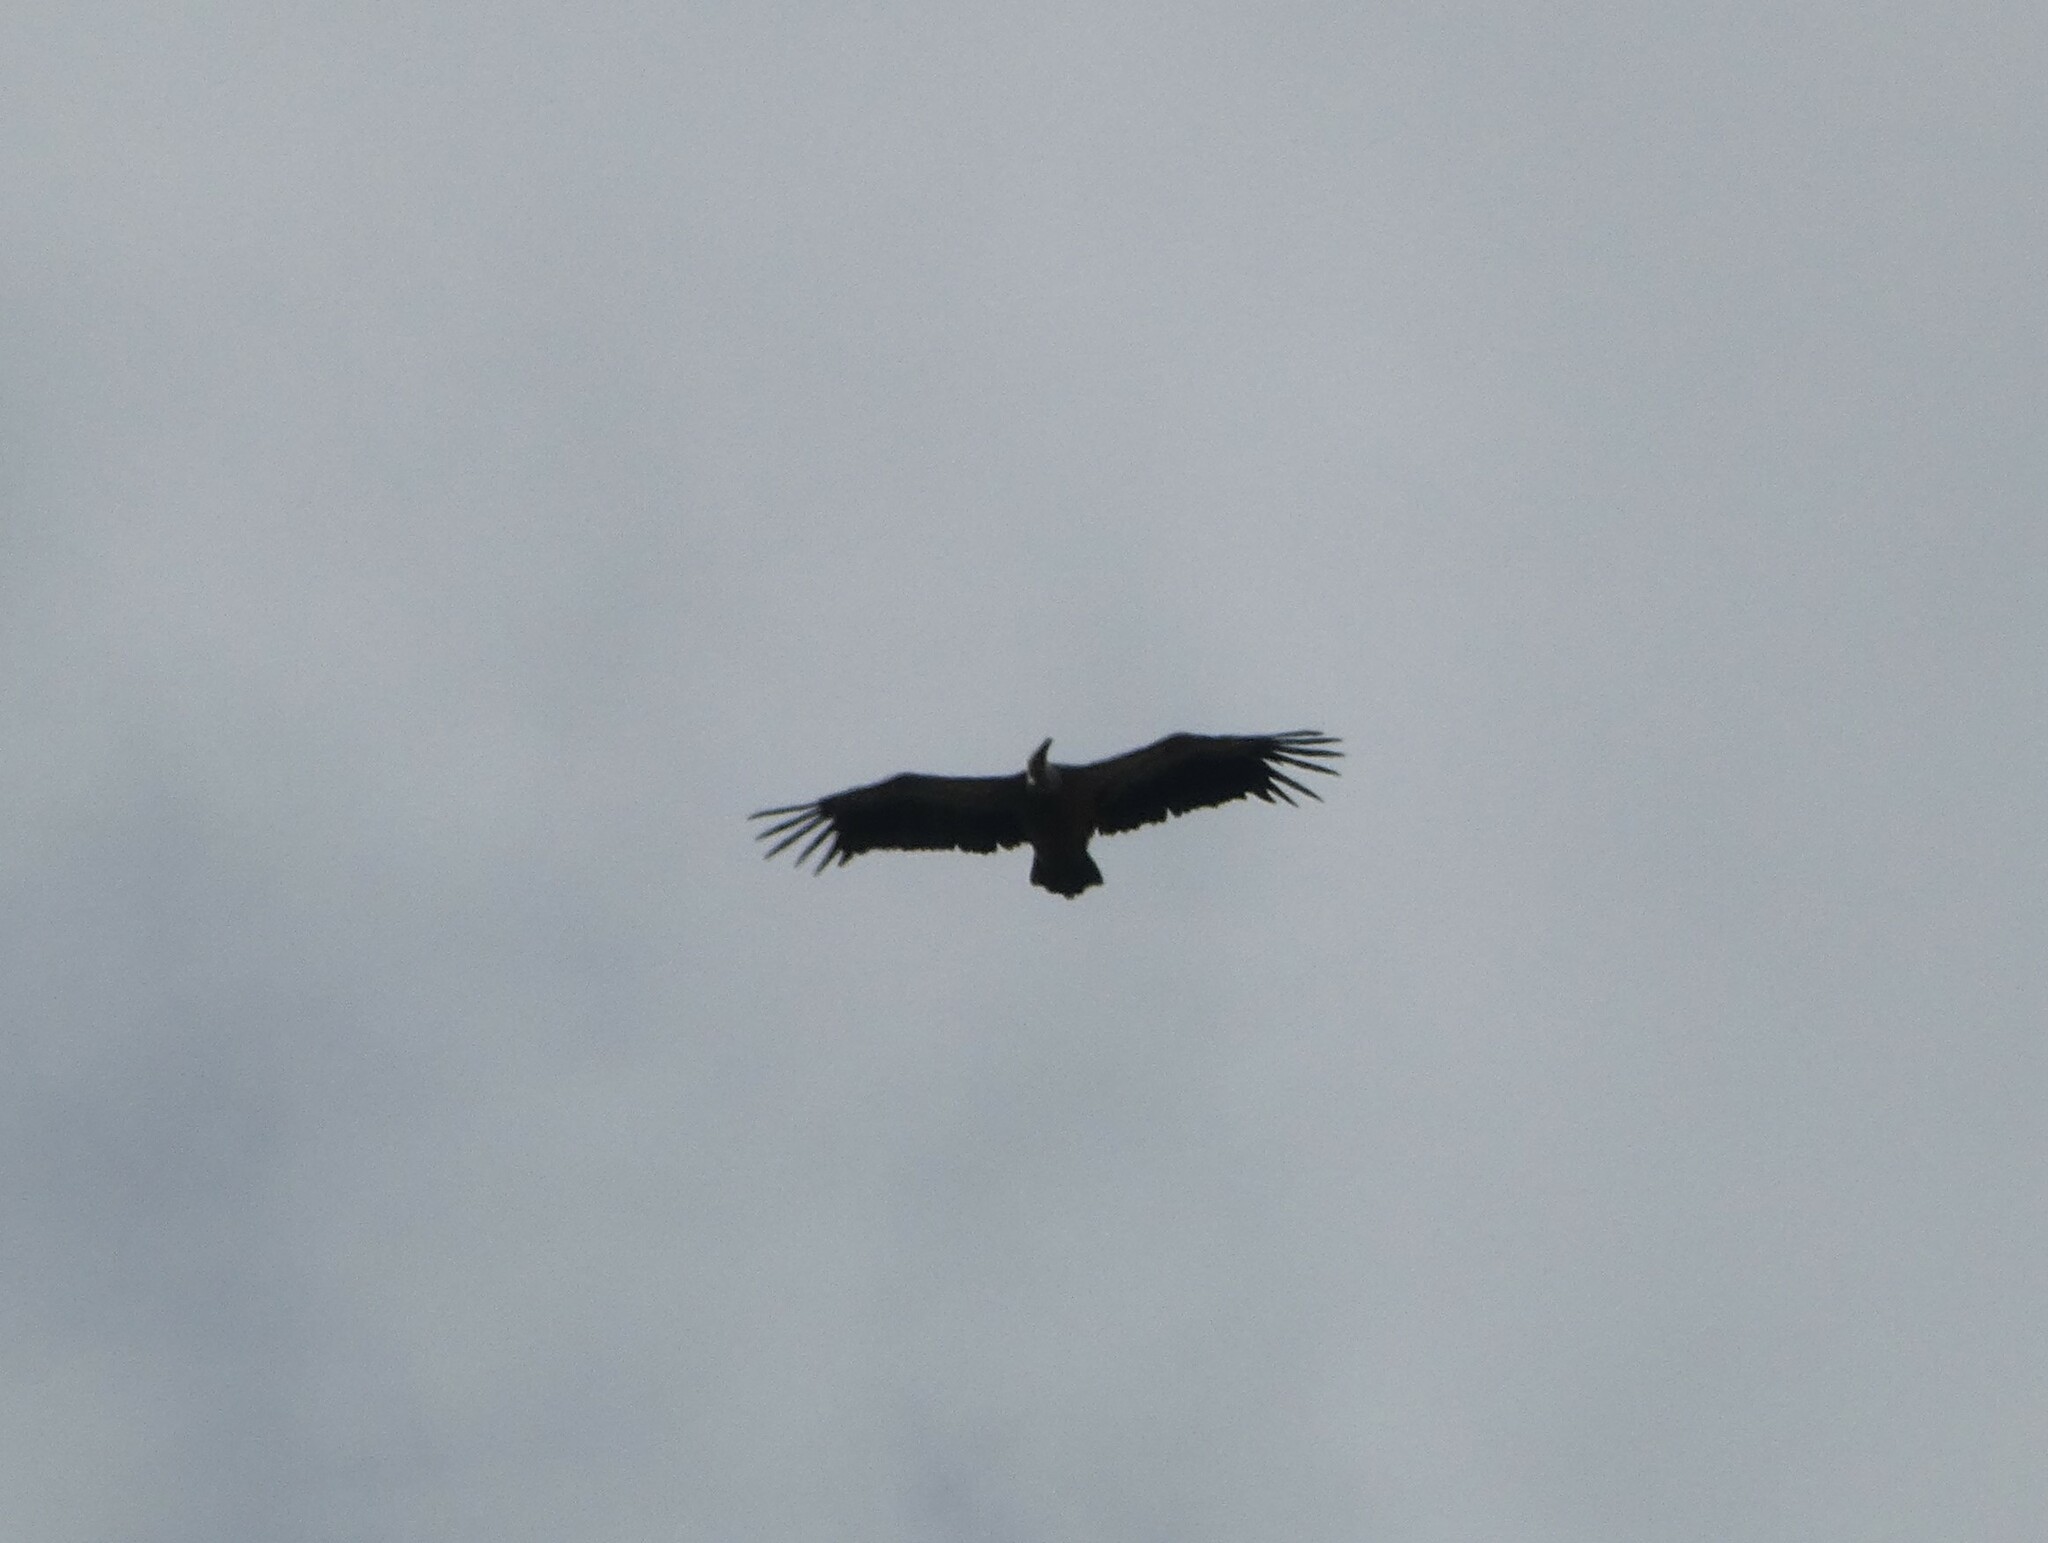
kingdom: Animalia
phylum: Chordata
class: Aves
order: Accipitriformes
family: Accipitridae
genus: Gyps
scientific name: Gyps fulvus
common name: Griffon vulture
